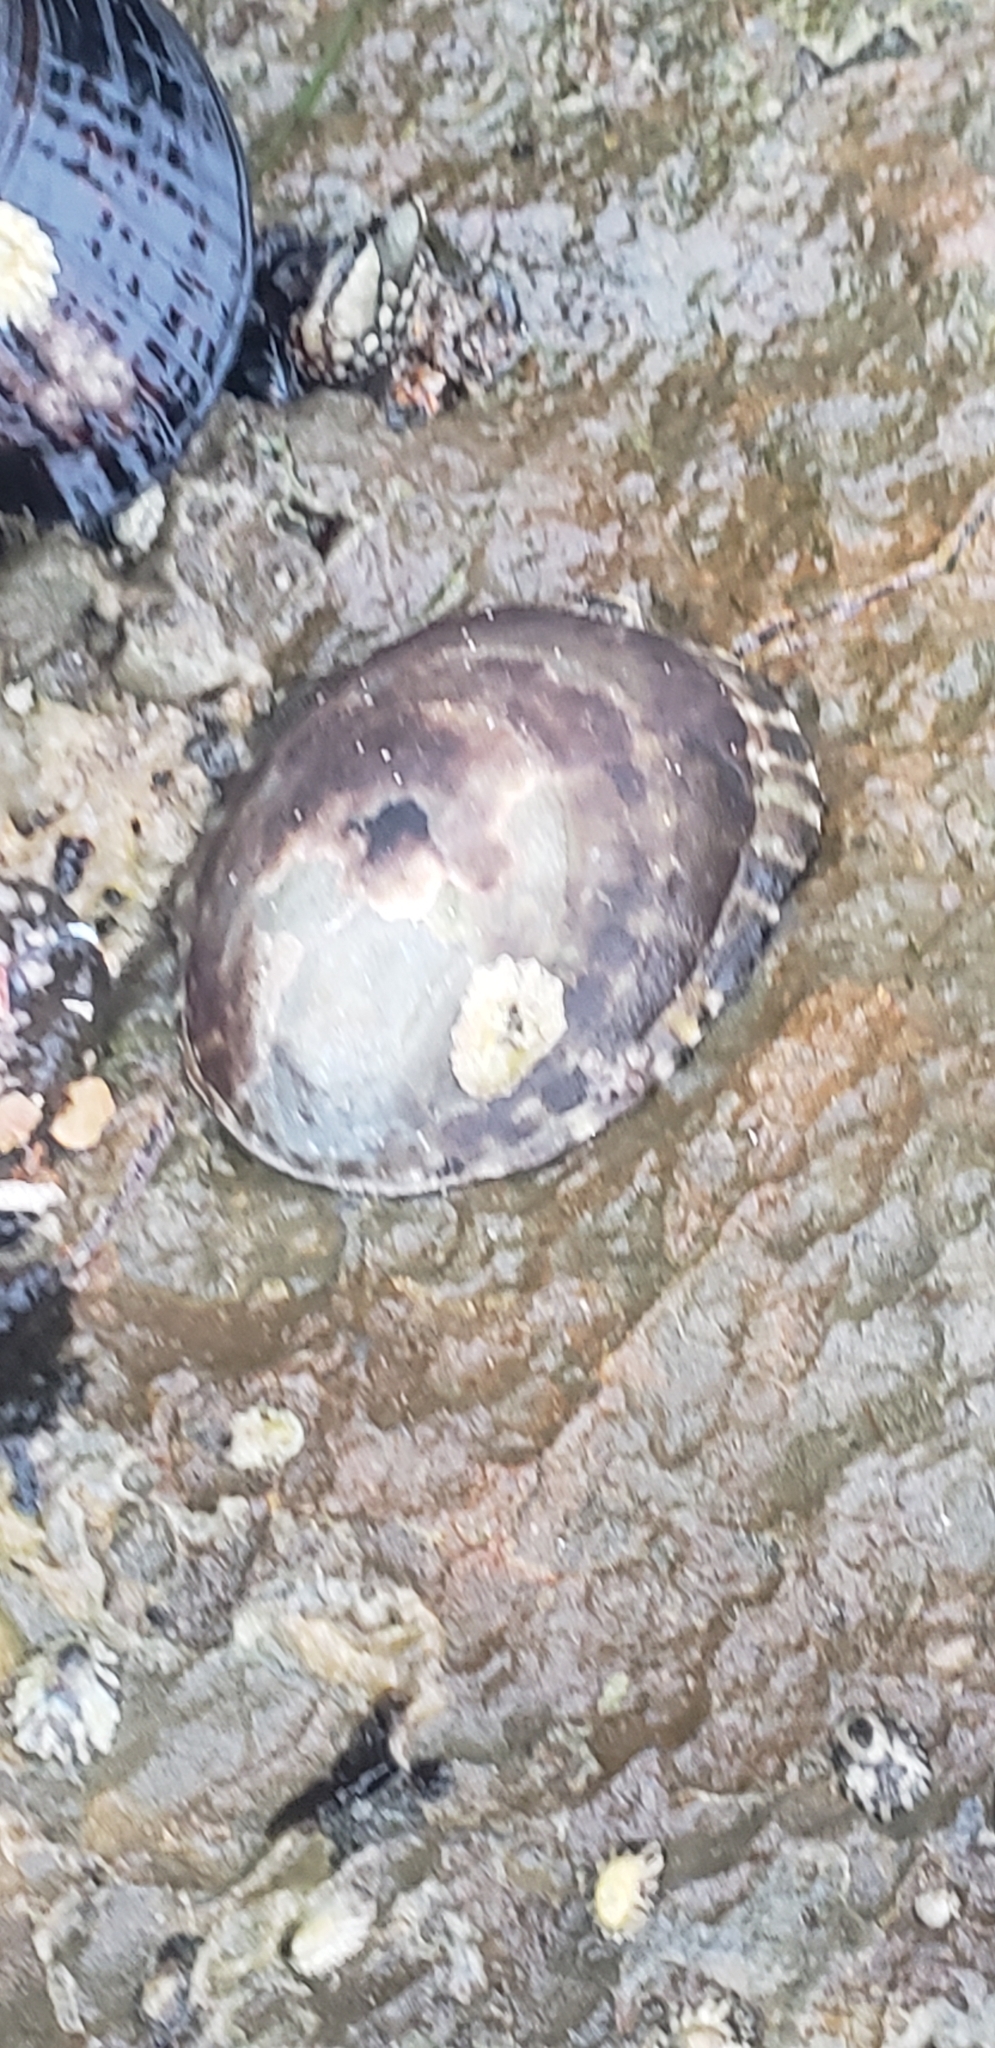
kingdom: Animalia
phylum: Mollusca
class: Gastropoda
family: Lottiidae
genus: Lottia
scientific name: Lottia gigantea
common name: Owl limpet
